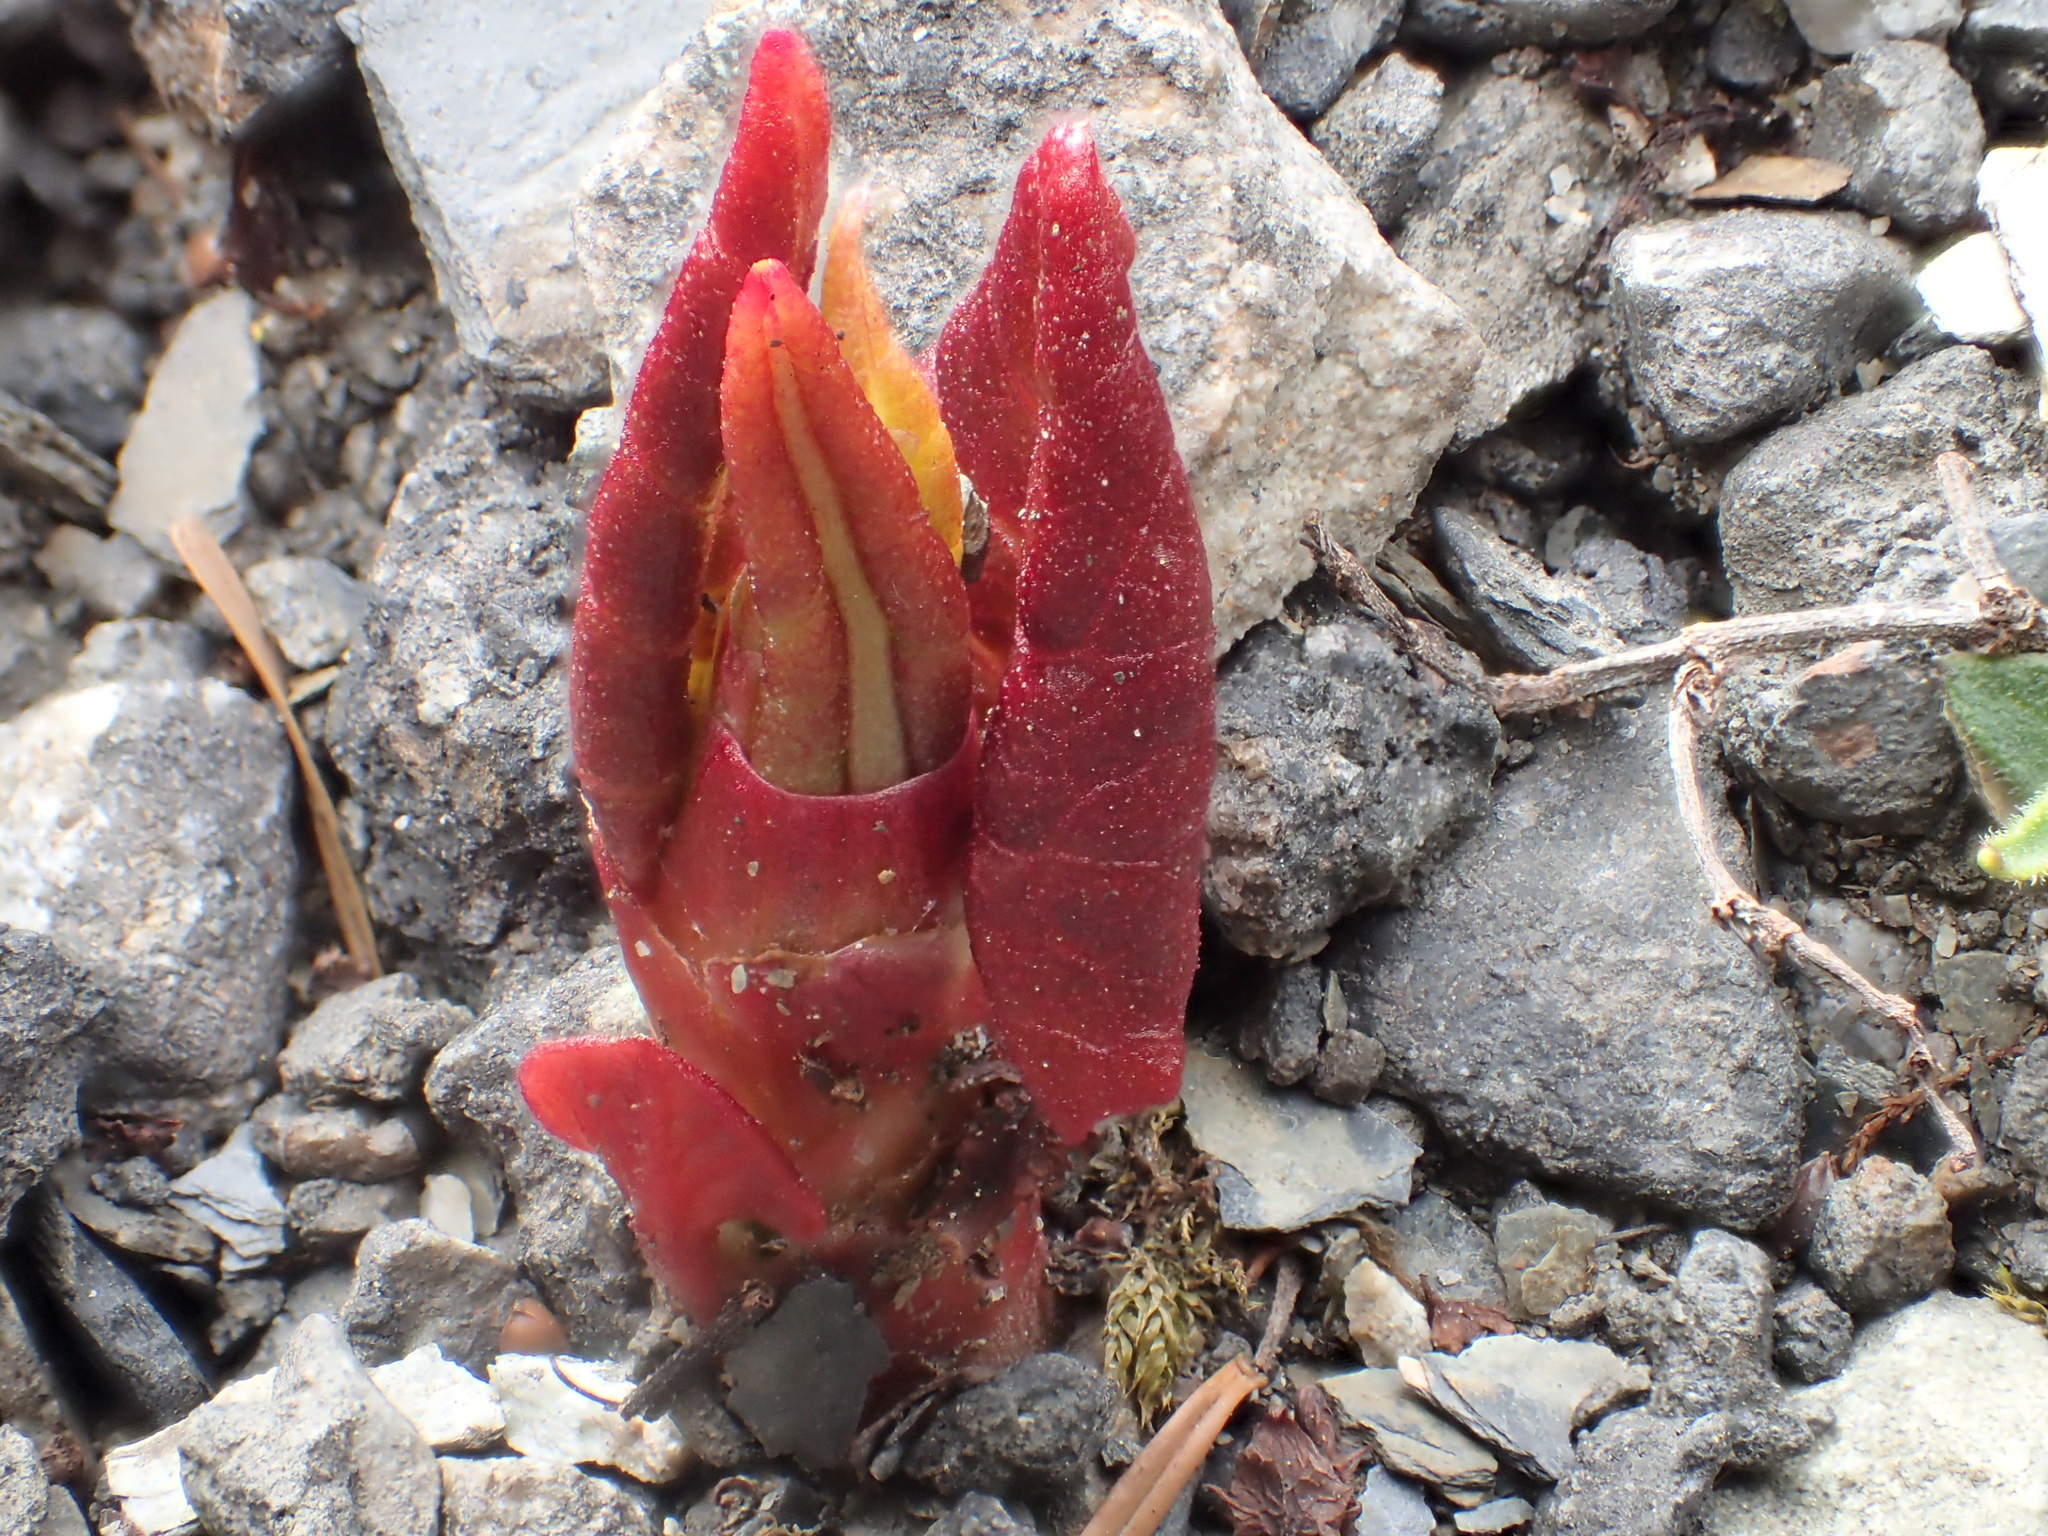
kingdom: Plantae
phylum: Tracheophyta
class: Magnoliopsida
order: Caryophyllales
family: Polygonaceae
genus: Reynoutria
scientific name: Reynoutria japonica
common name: Japanese knotweed
